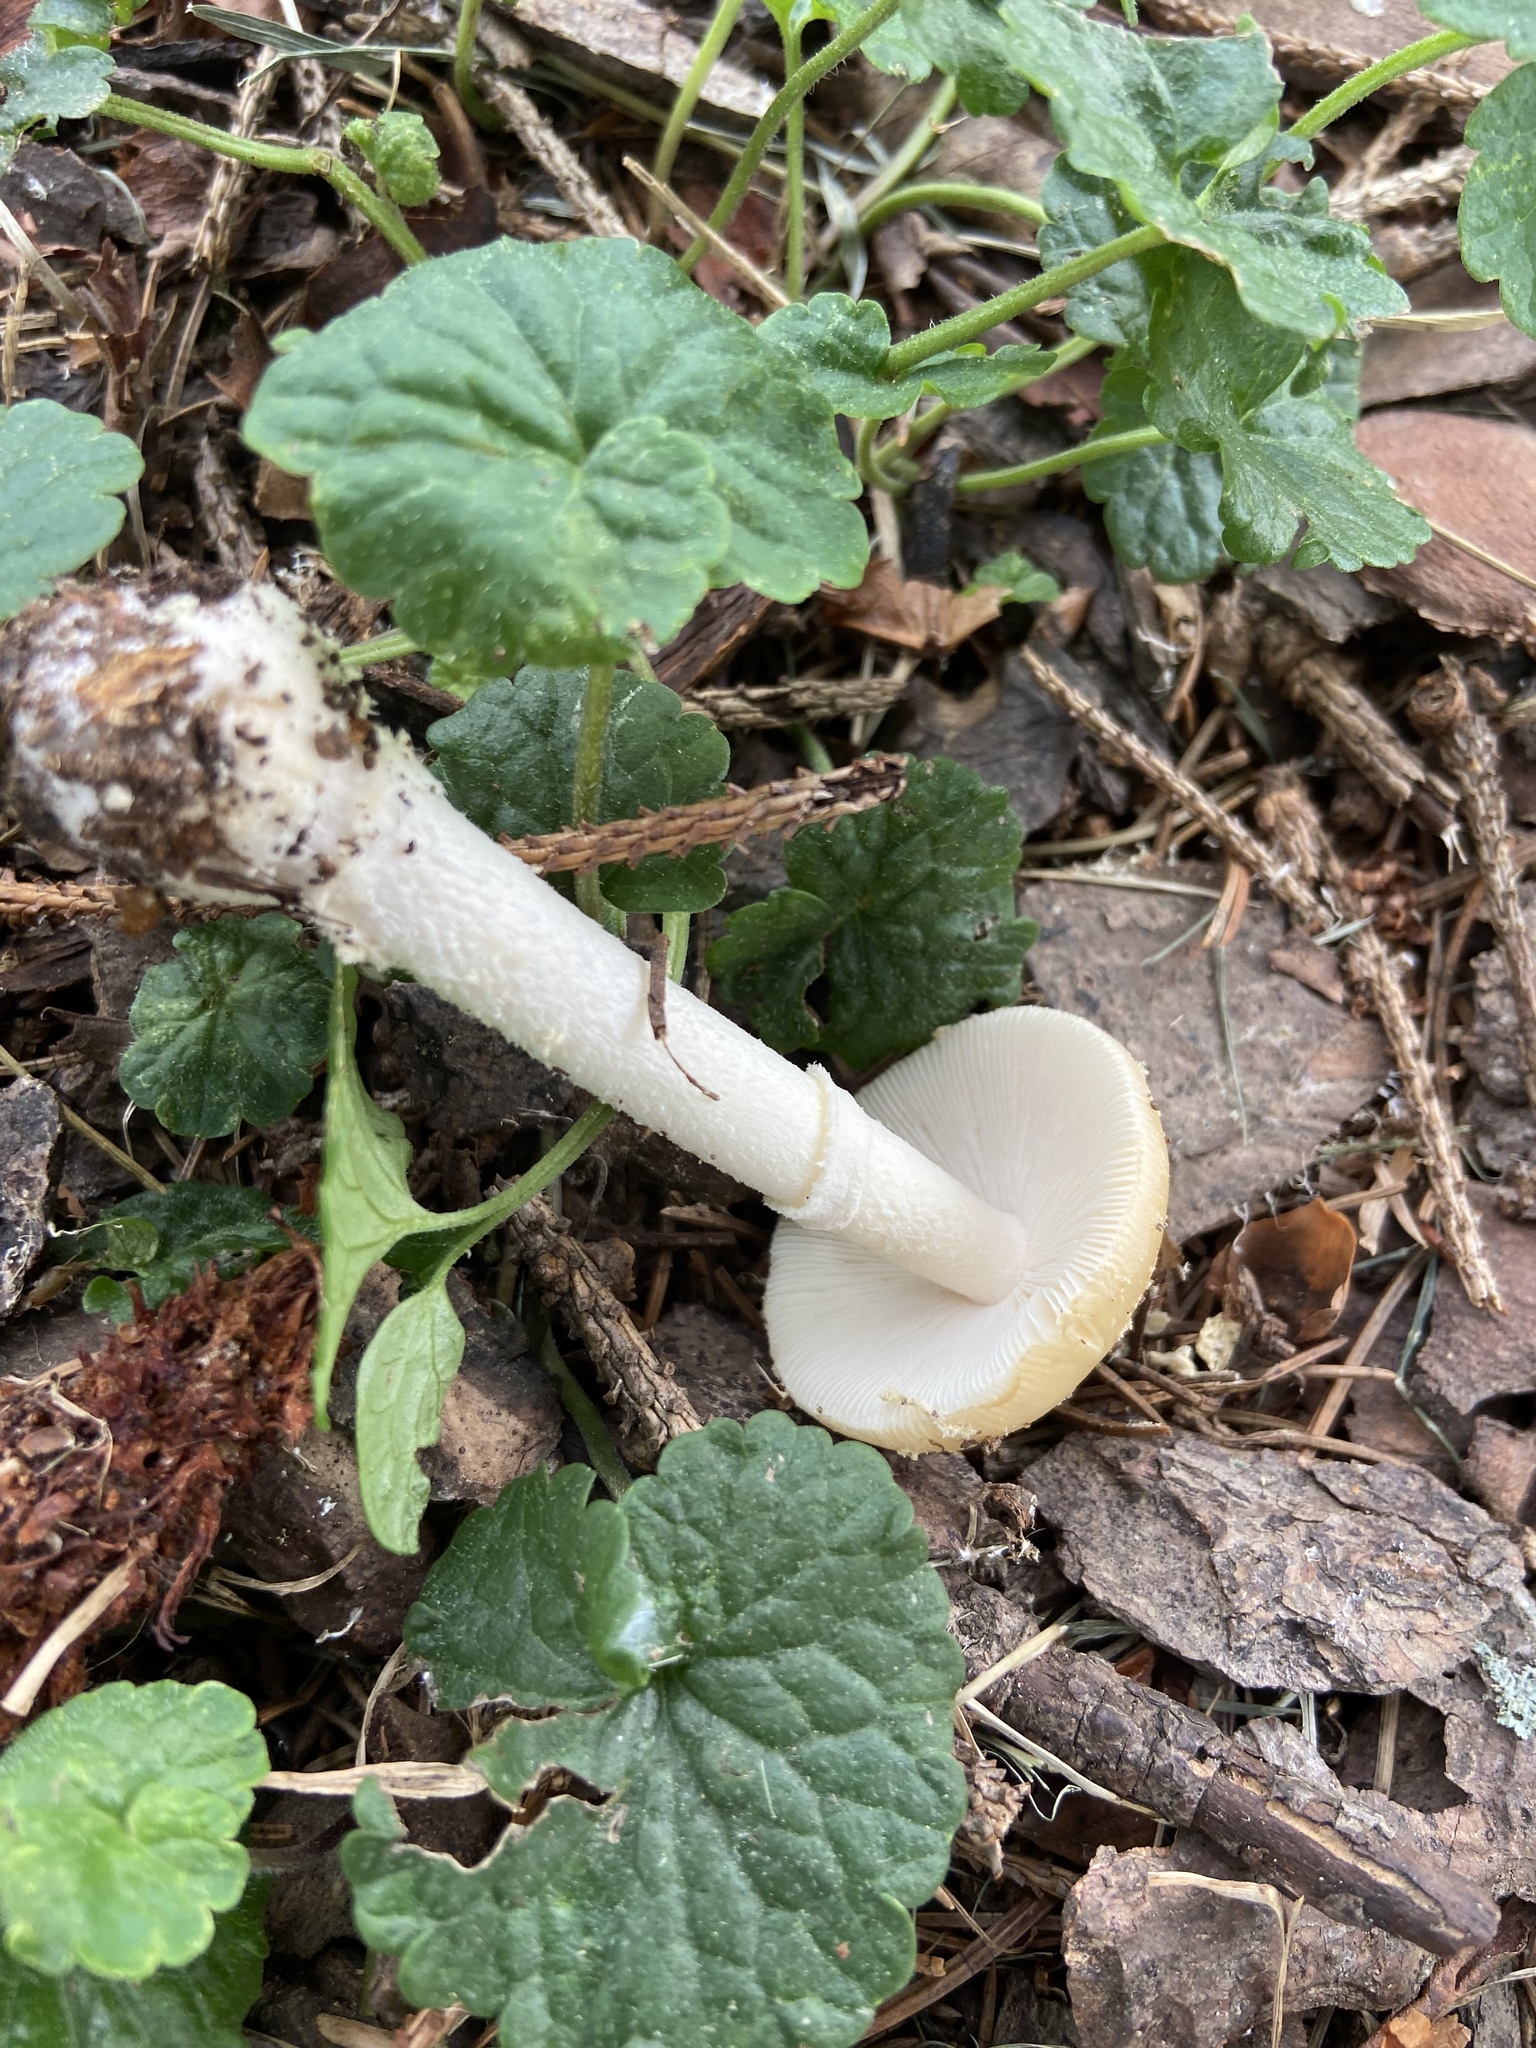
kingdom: Fungi
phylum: Basidiomycota
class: Agaricomycetes
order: Agaricales
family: Amanitaceae
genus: Amanita
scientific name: Amanita crenulata
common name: Poison champagne amanita
